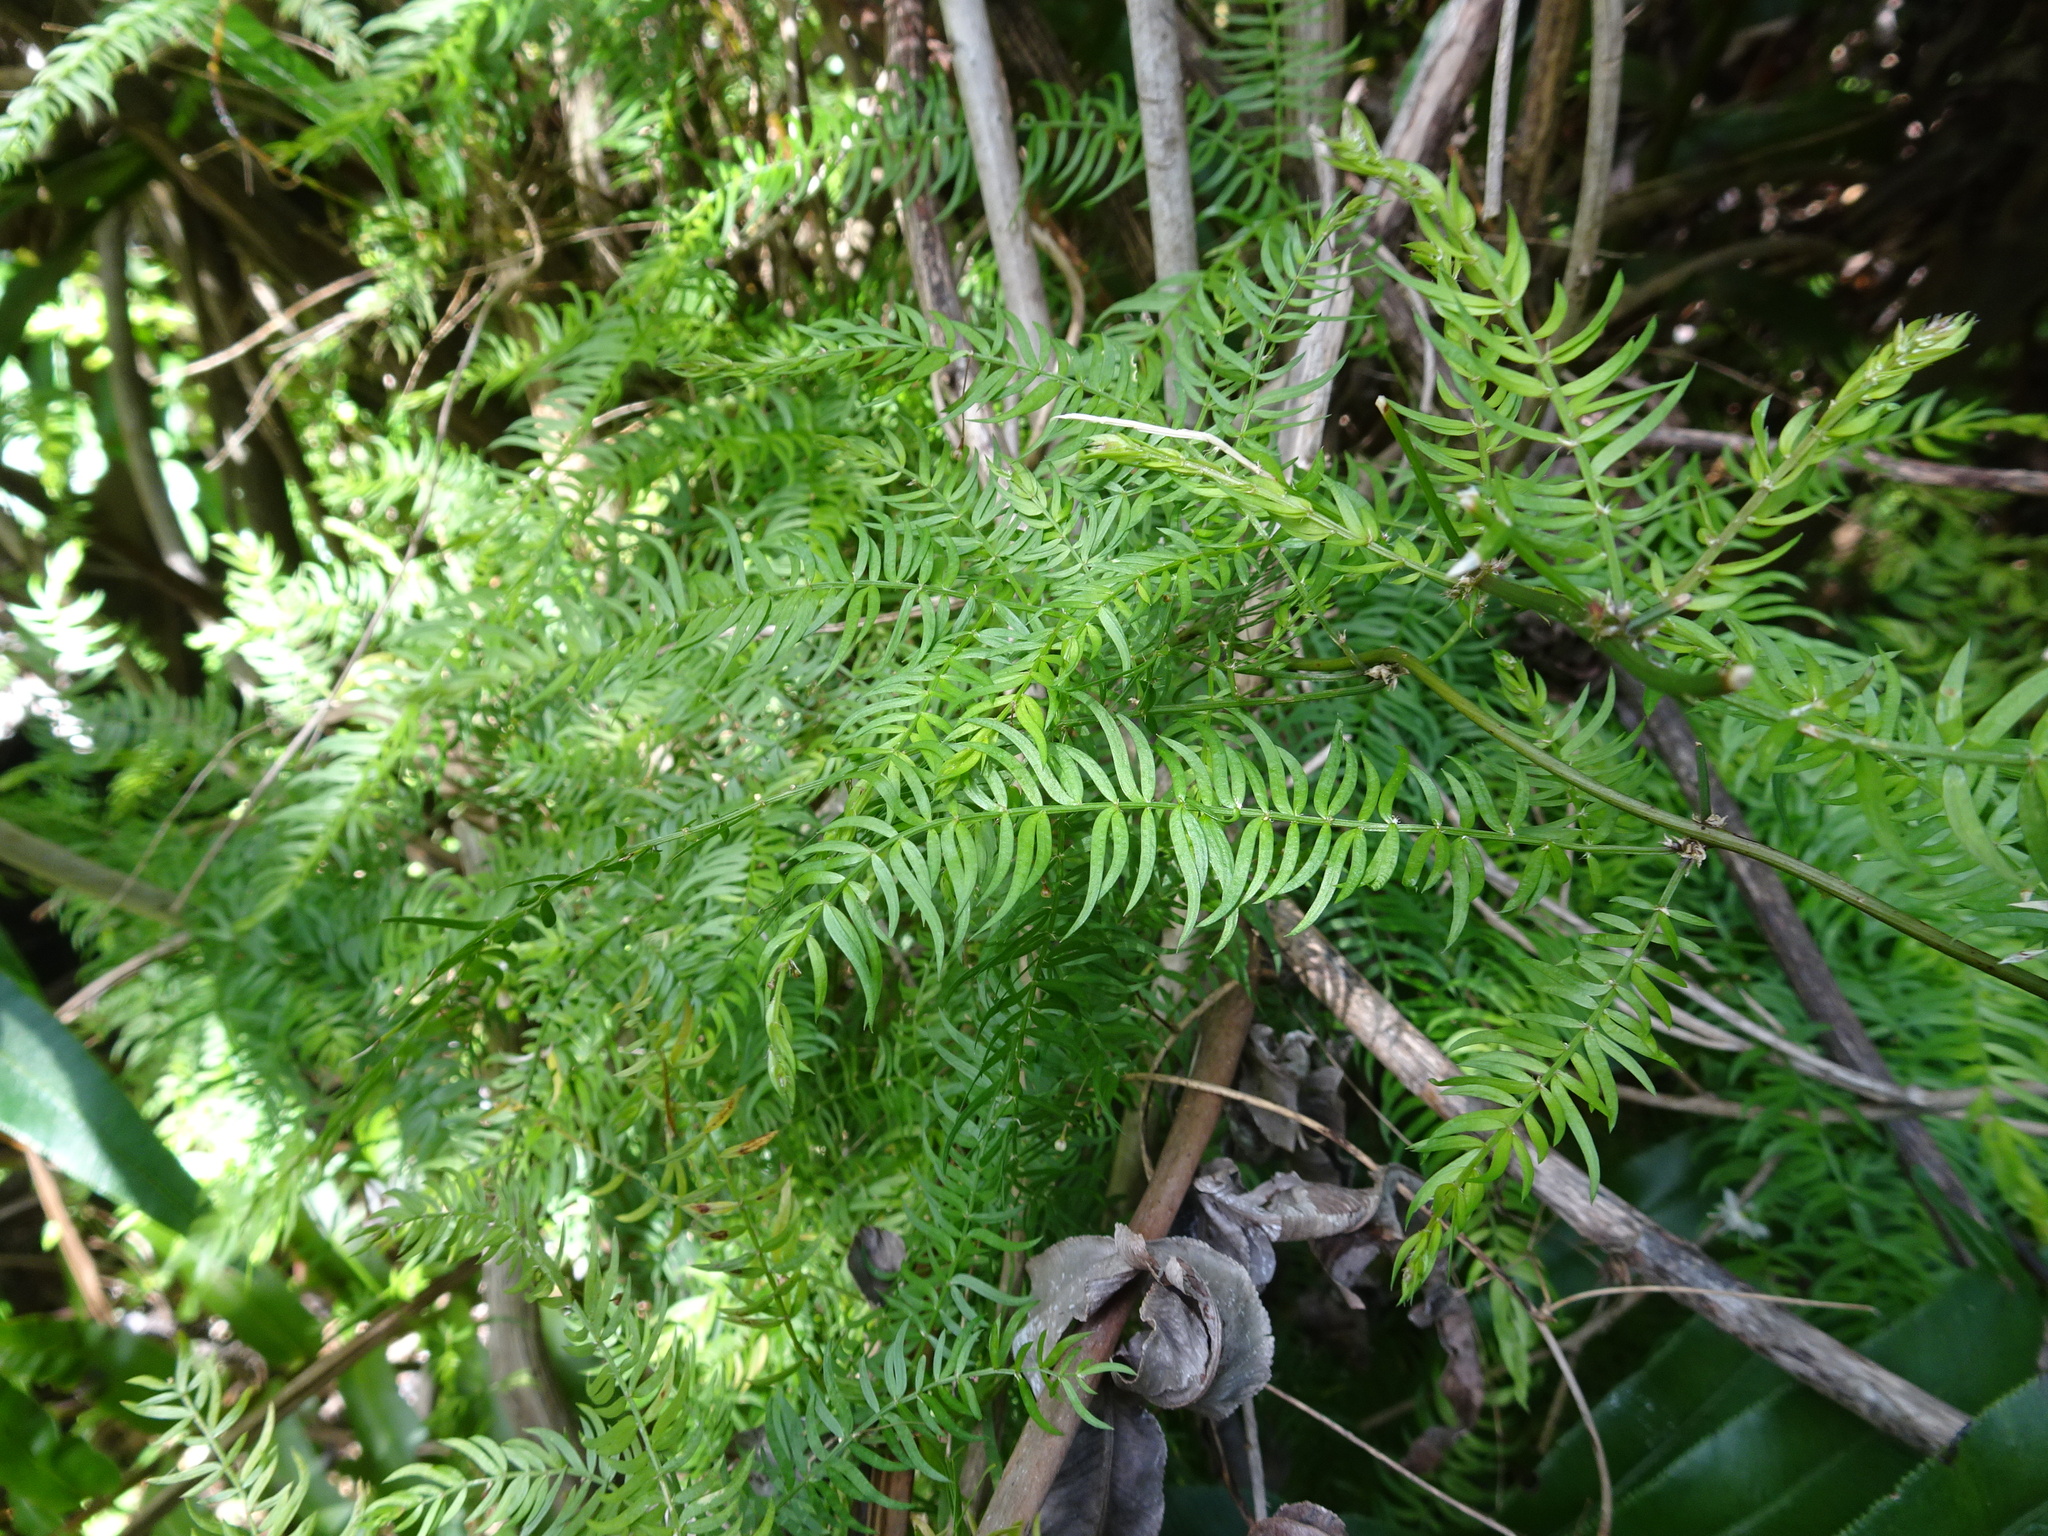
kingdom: Plantae
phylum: Tracheophyta
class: Liliopsida
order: Asparagales
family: Asparagaceae
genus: Asparagus
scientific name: Asparagus scandens
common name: Asparagus-fern
